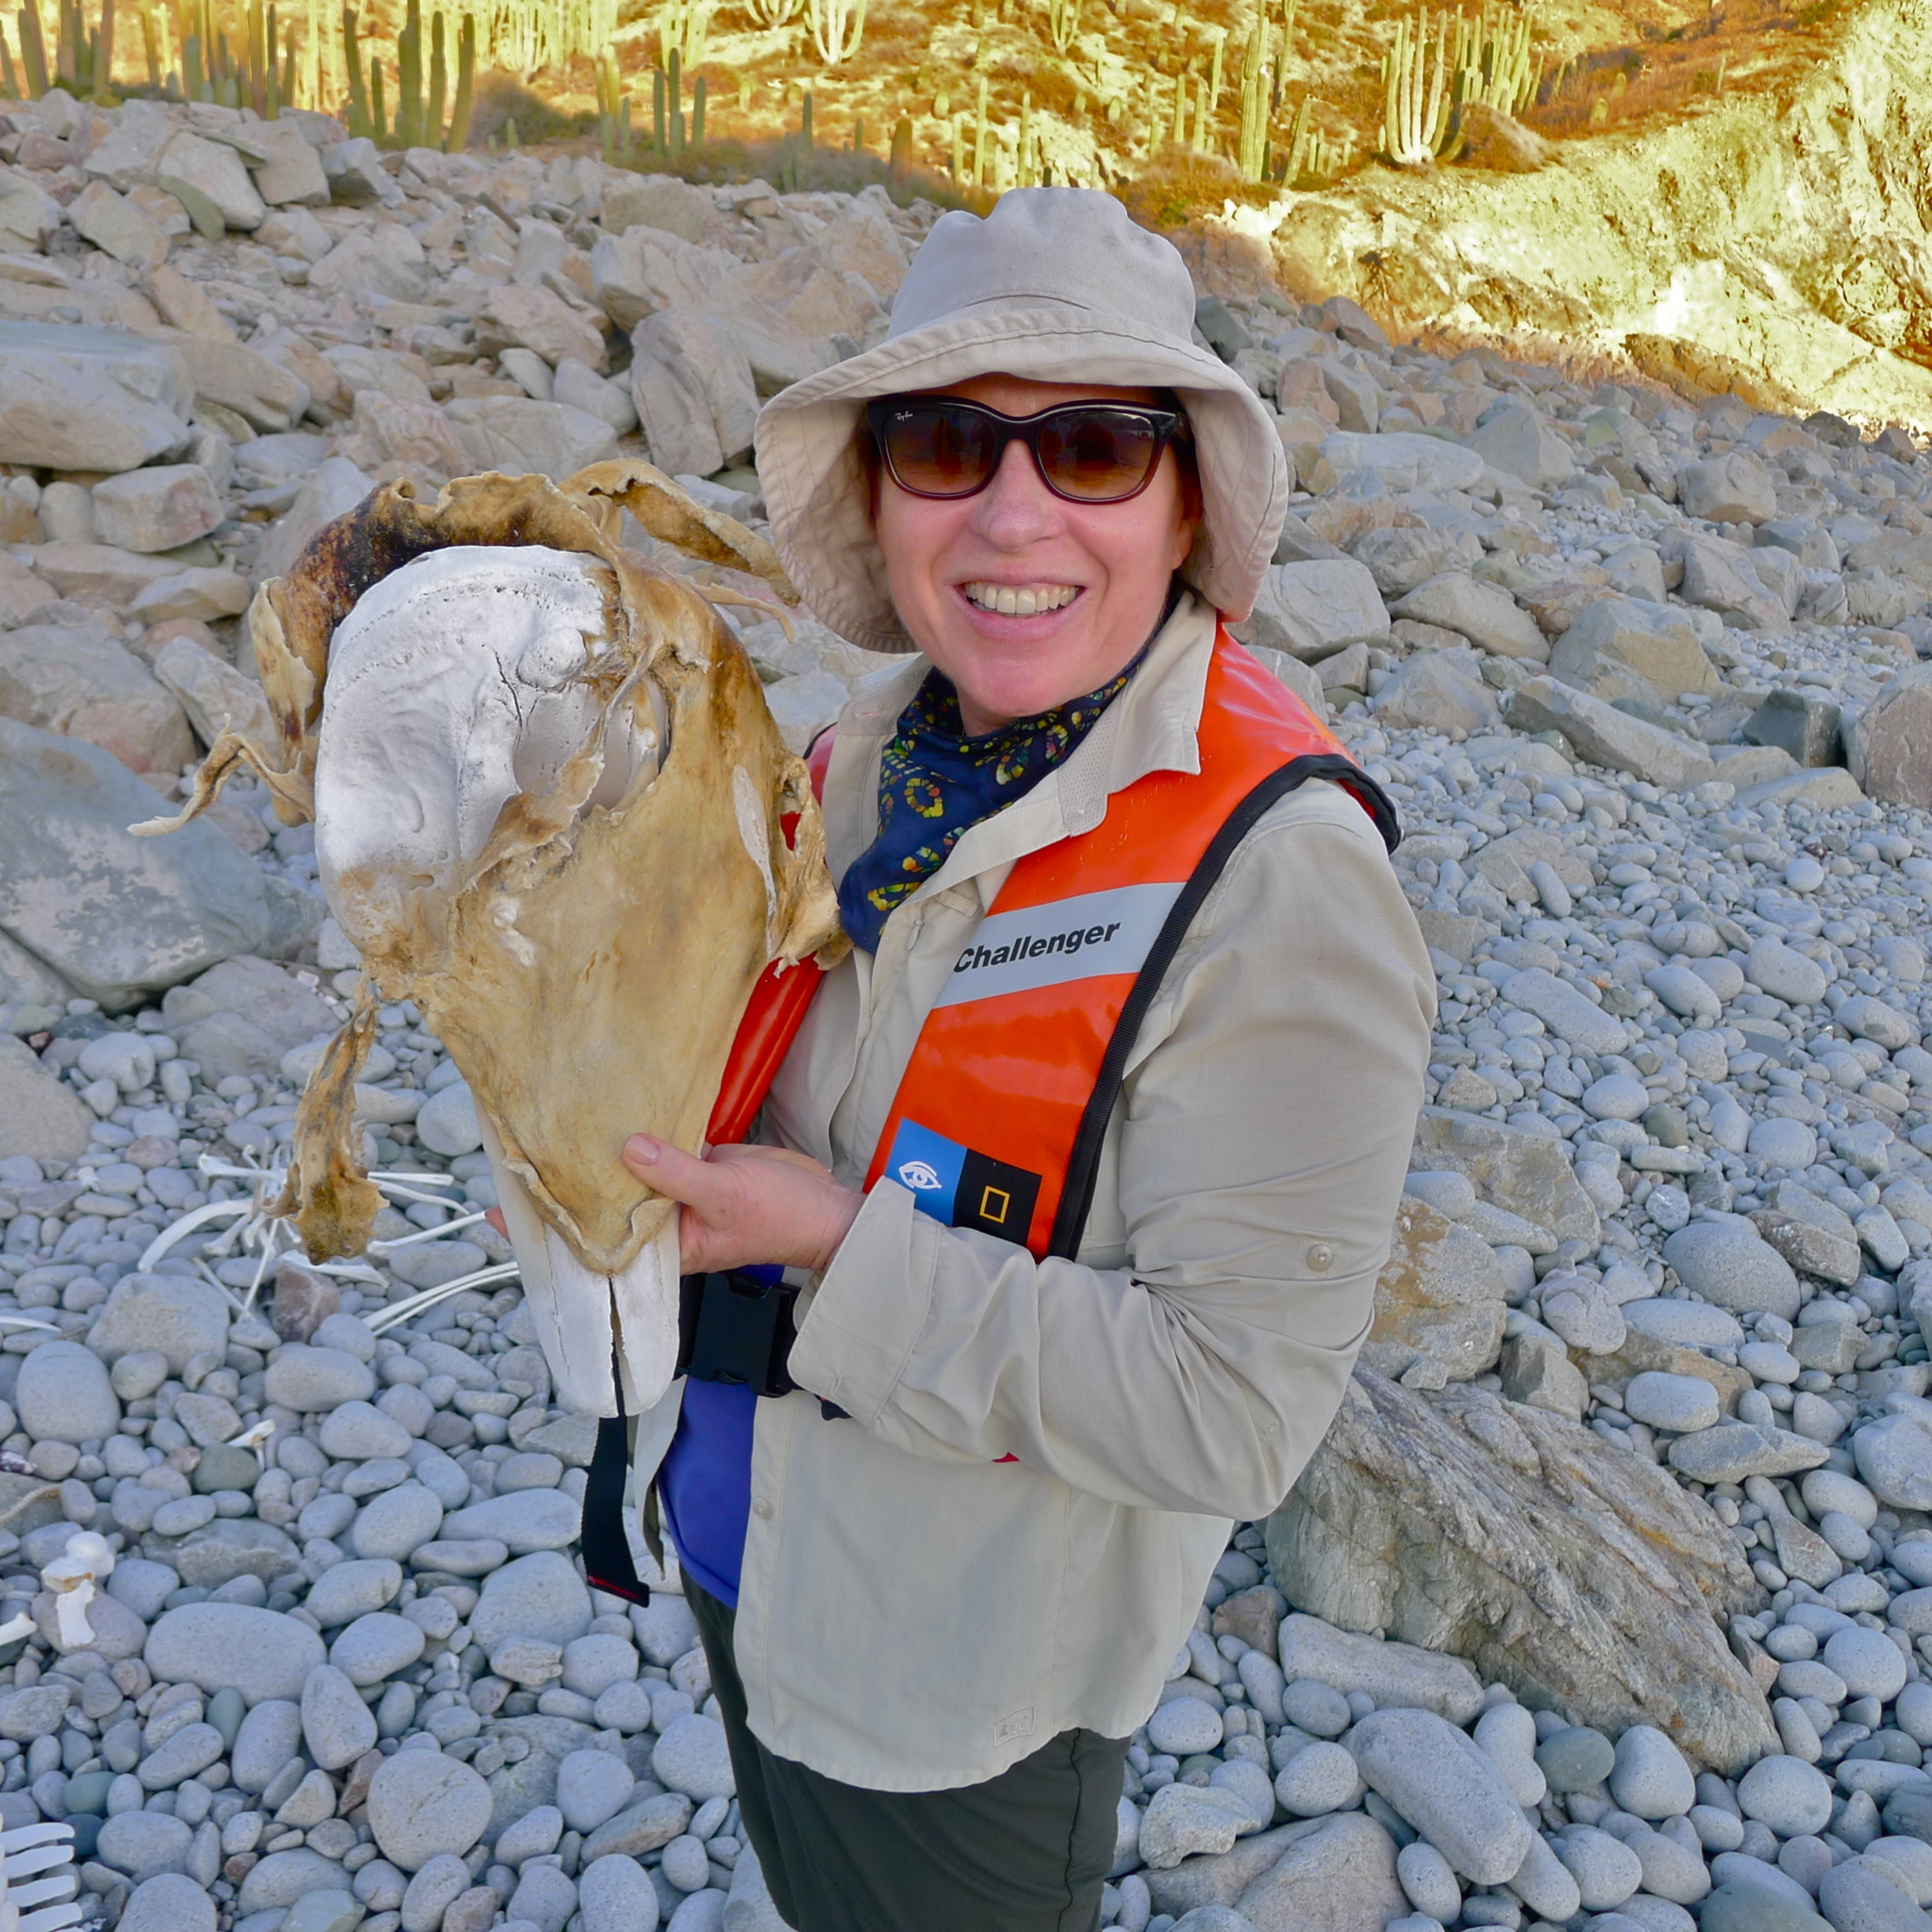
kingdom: Animalia
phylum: Chordata
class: Mammalia
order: Cetacea
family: Delphinidae
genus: Tursiops
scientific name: Tursiops truncatus
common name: Bottlenose dolphin
